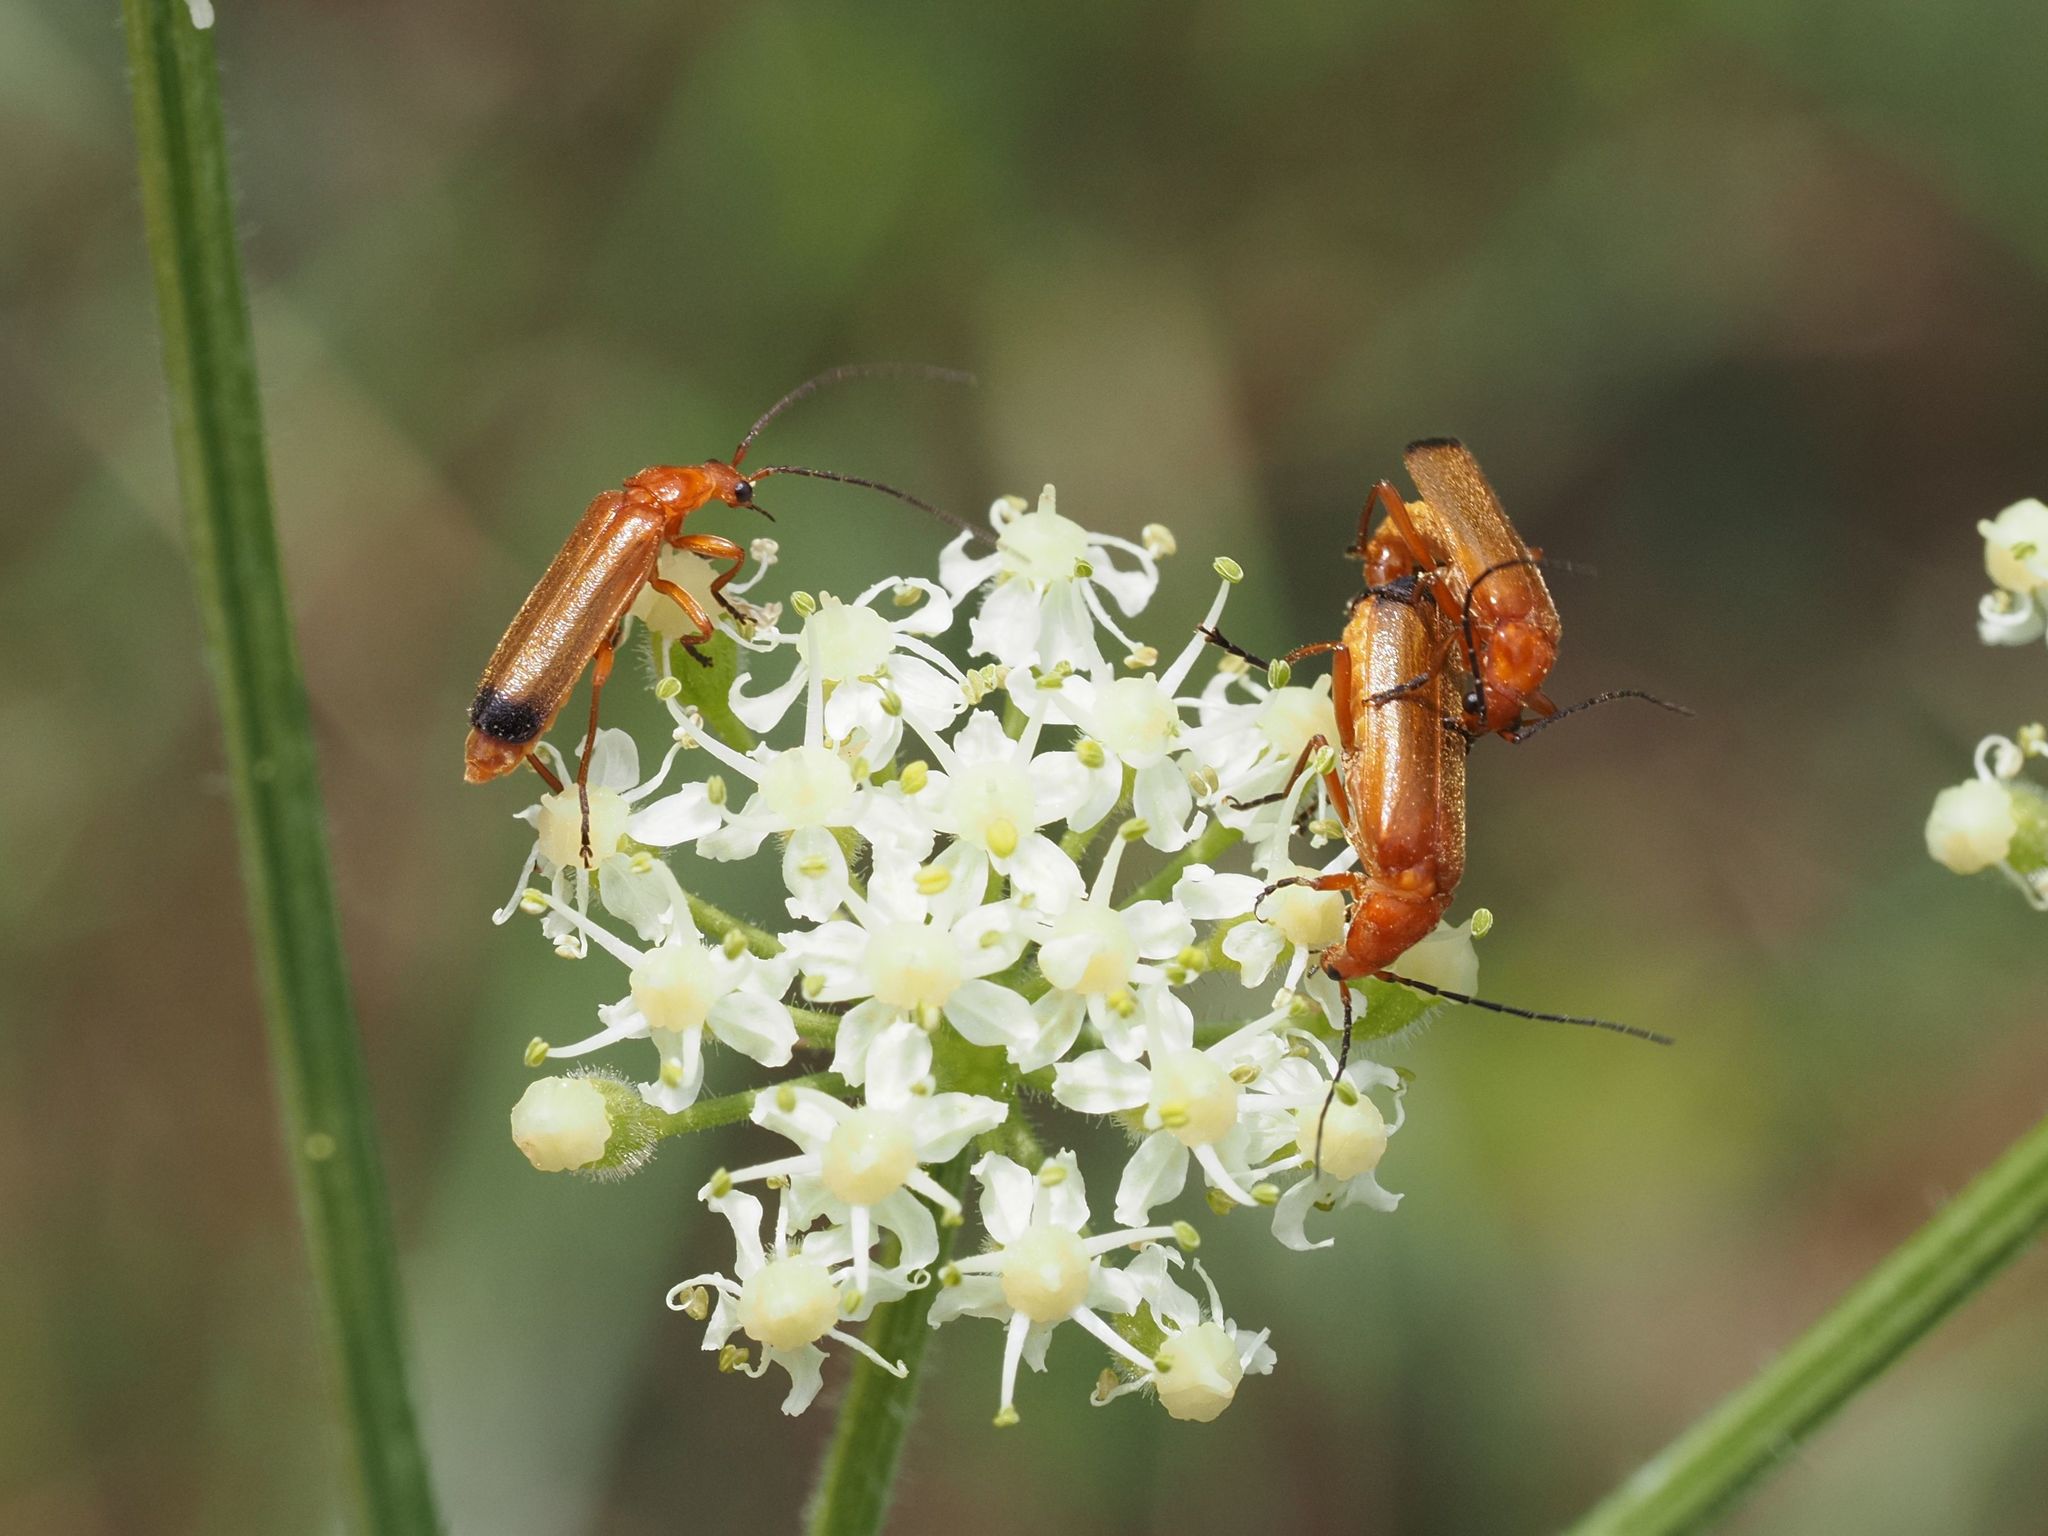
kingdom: Animalia
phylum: Arthropoda
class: Insecta
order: Coleoptera
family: Cantharidae
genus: Rhagonycha
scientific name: Rhagonycha fulva
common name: Common red soldier beetle
